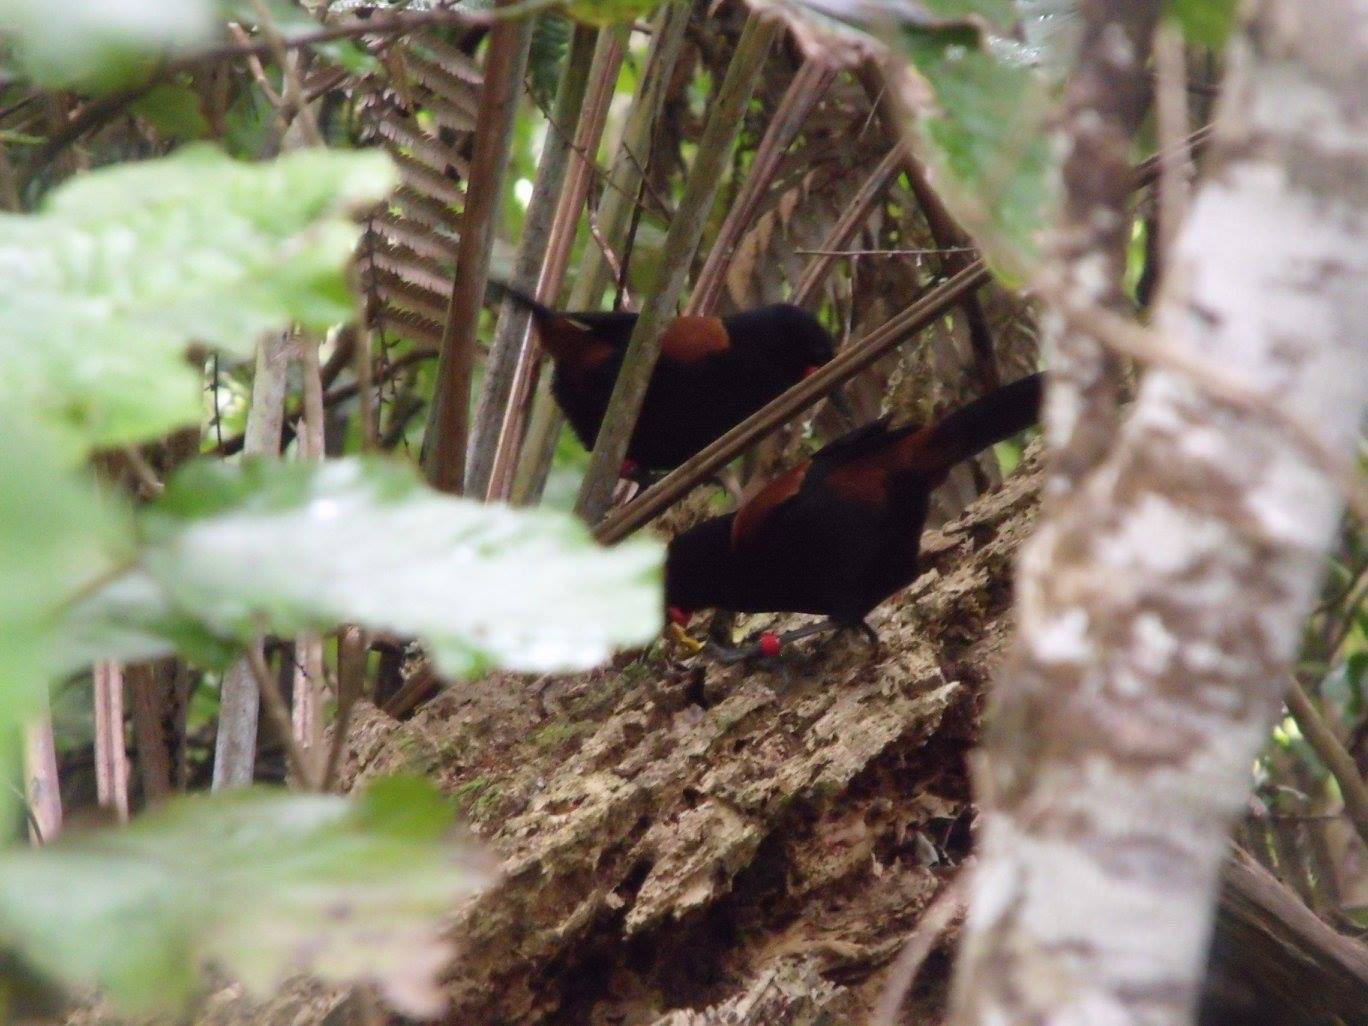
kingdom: Animalia
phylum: Chordata
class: Aves
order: Passeriformes
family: Callaeatidae
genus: Philesturnus
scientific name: Philesturnus carunculatus
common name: South island saddleback
